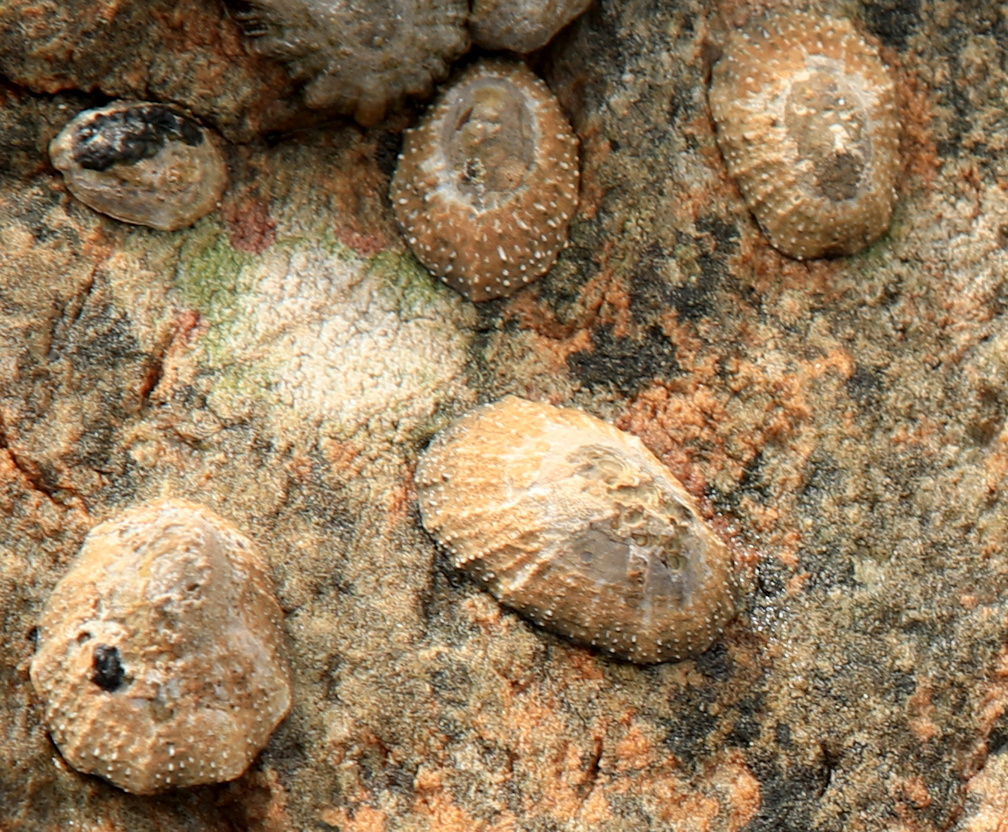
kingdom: Animalia
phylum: Mollusca
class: Gastropoda
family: Patellidae
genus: Scutellastra
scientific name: Scutellastra granularis
